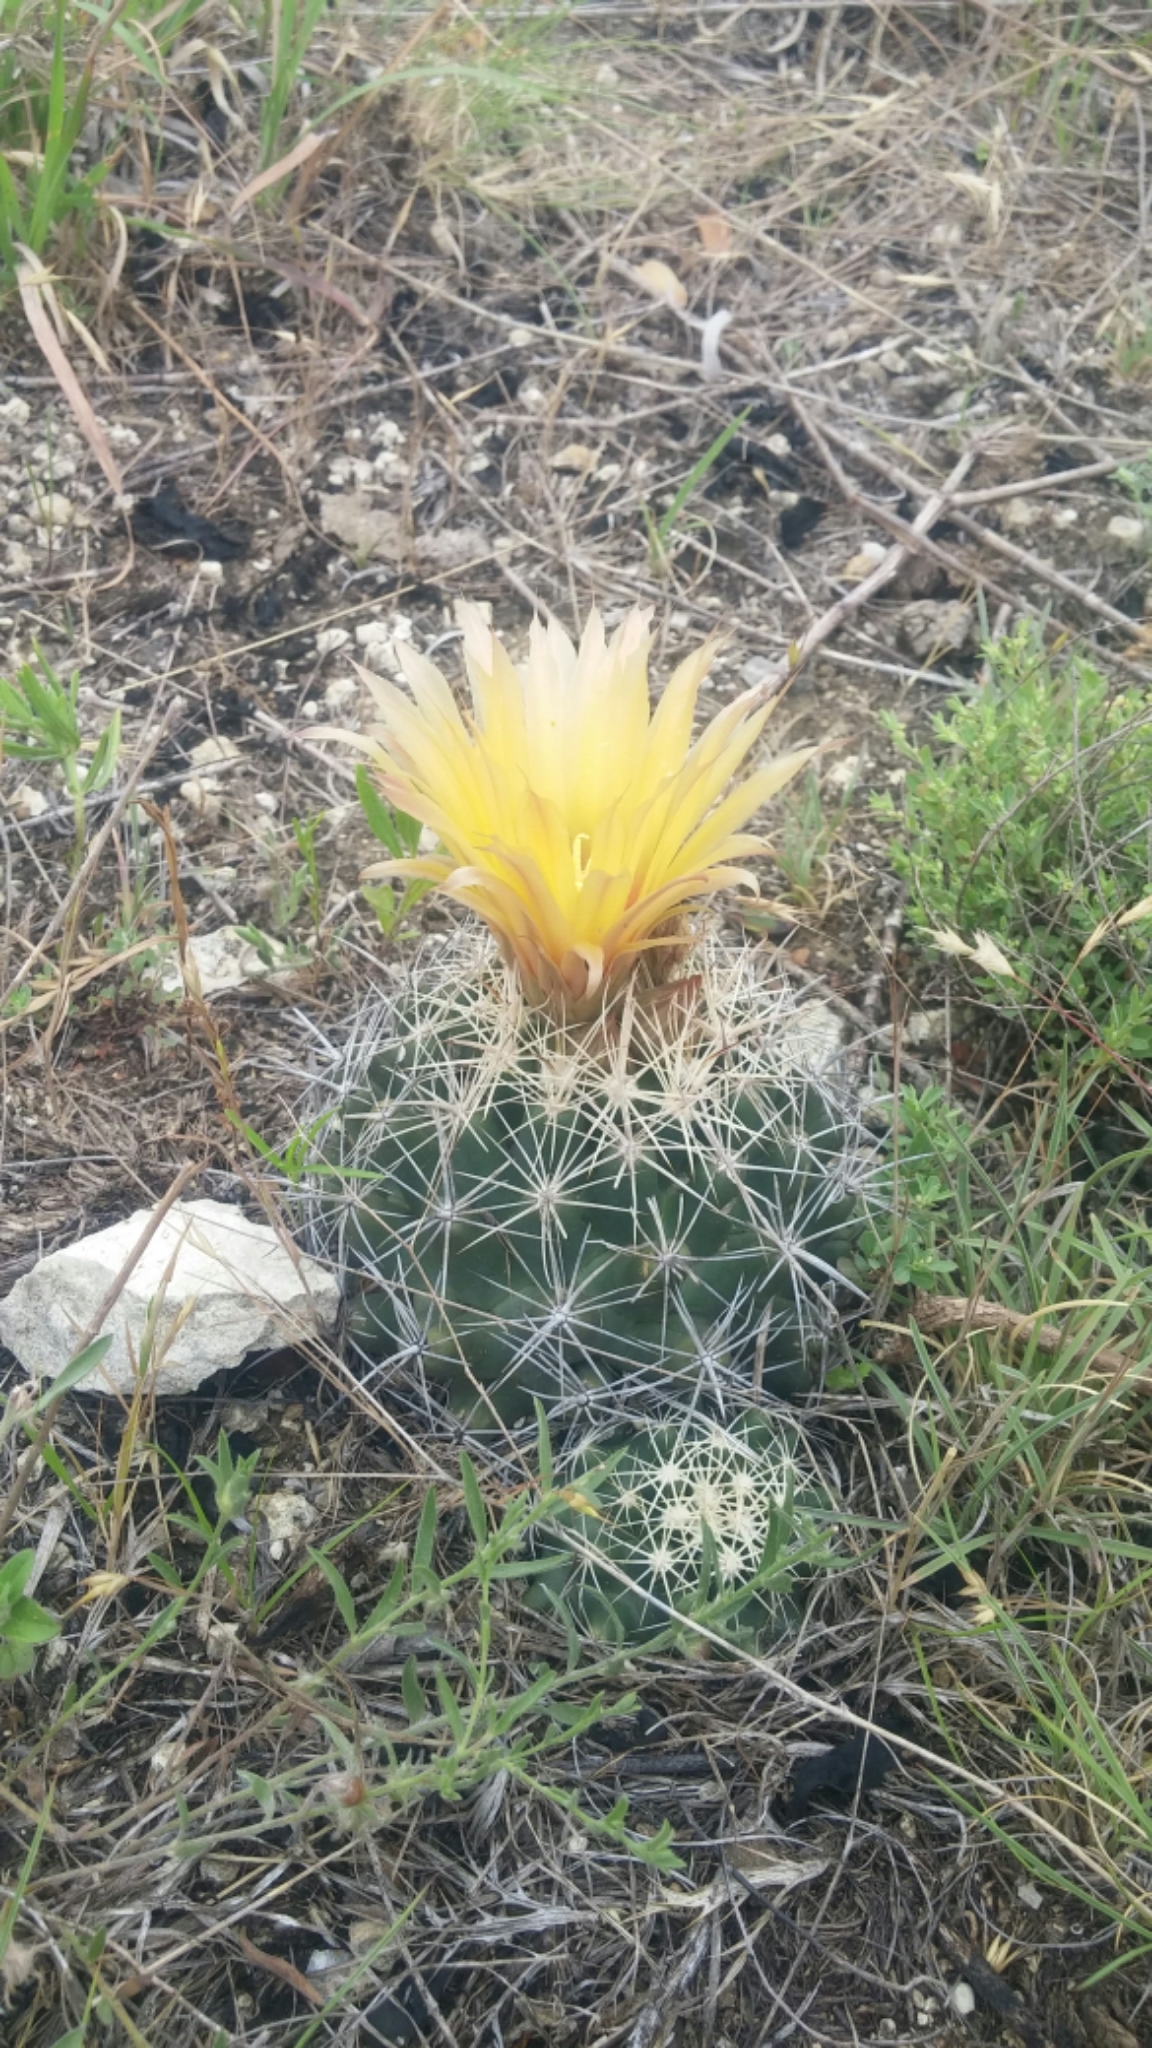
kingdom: Plantae
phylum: Tracheophyta
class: Magnoliopsida
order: Caryophyllales
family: Cactaceae
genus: Coryphantha
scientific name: Coryphantha sulcata
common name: Finger cactus
